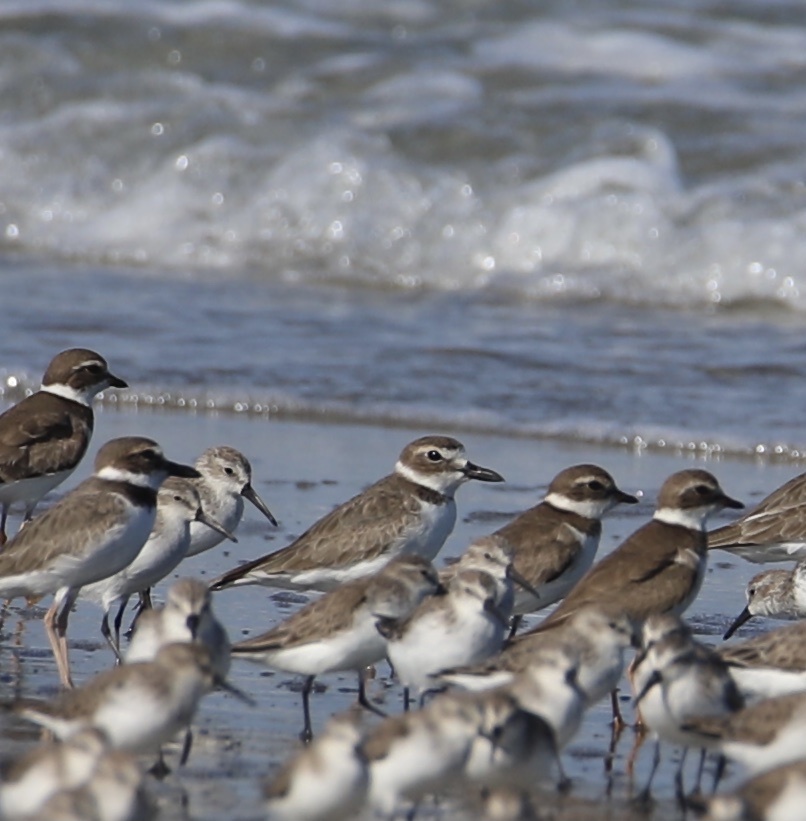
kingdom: Animalia
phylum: Chordata
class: Aves
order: Charadriiformes
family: Charadriidae
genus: Anarhynchus
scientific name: Anarhynchus
